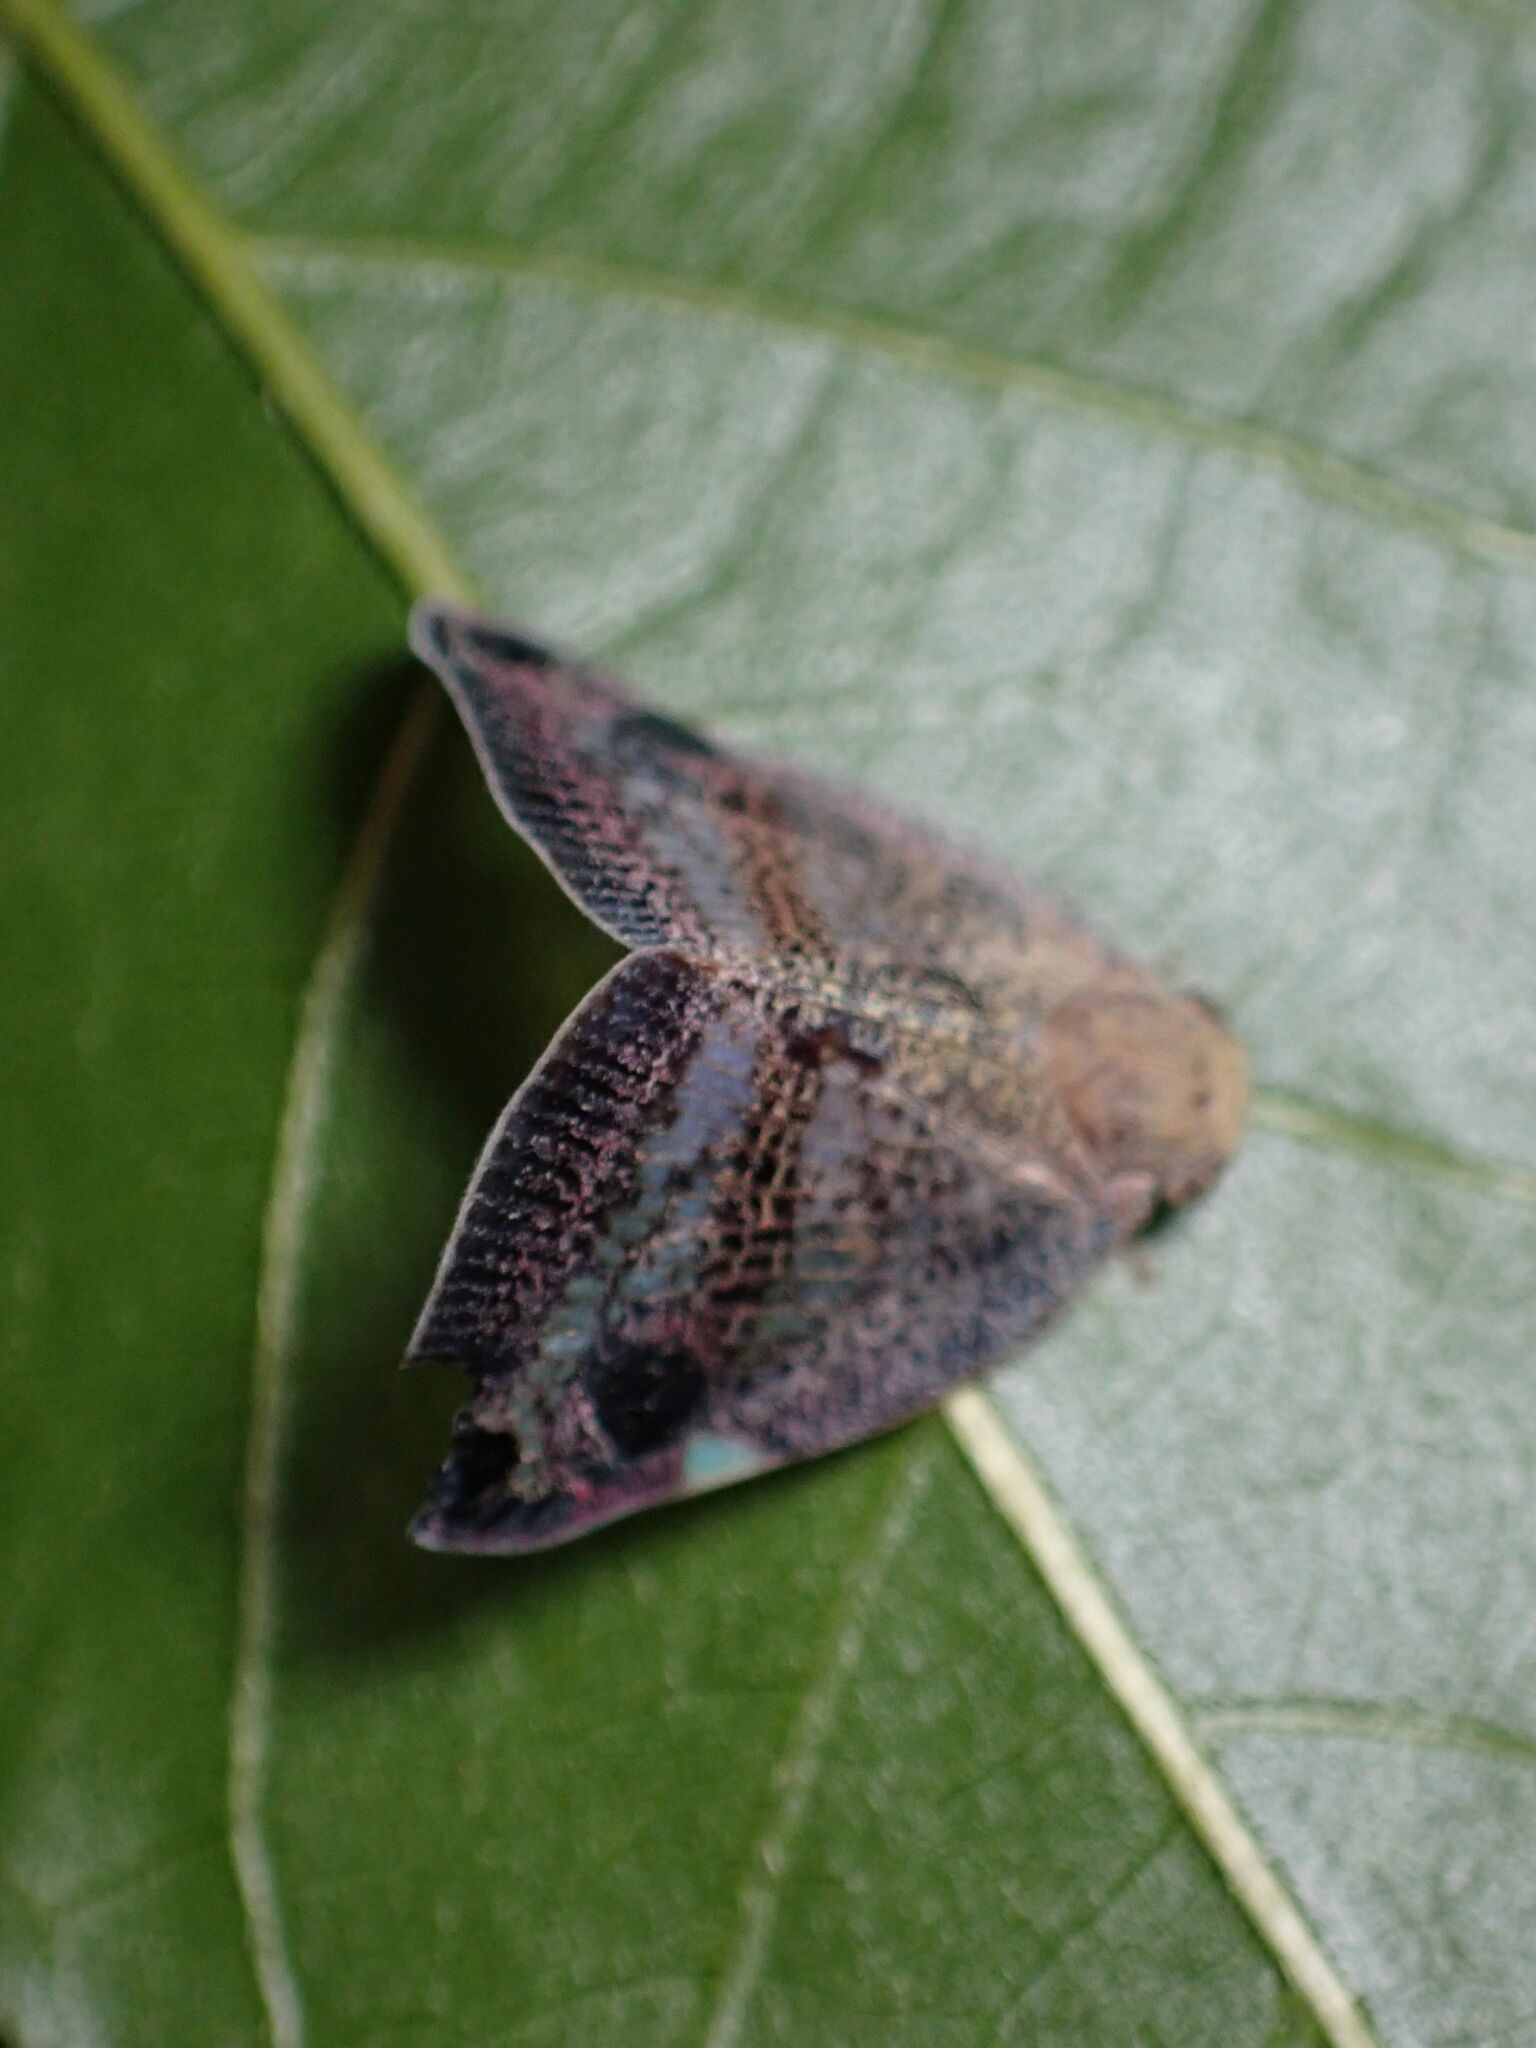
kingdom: Animalia
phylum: Arthropoda
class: Insecta
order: Hemiptera
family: Ricaniidae
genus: Parapiromis
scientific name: Parapiromis translucida
